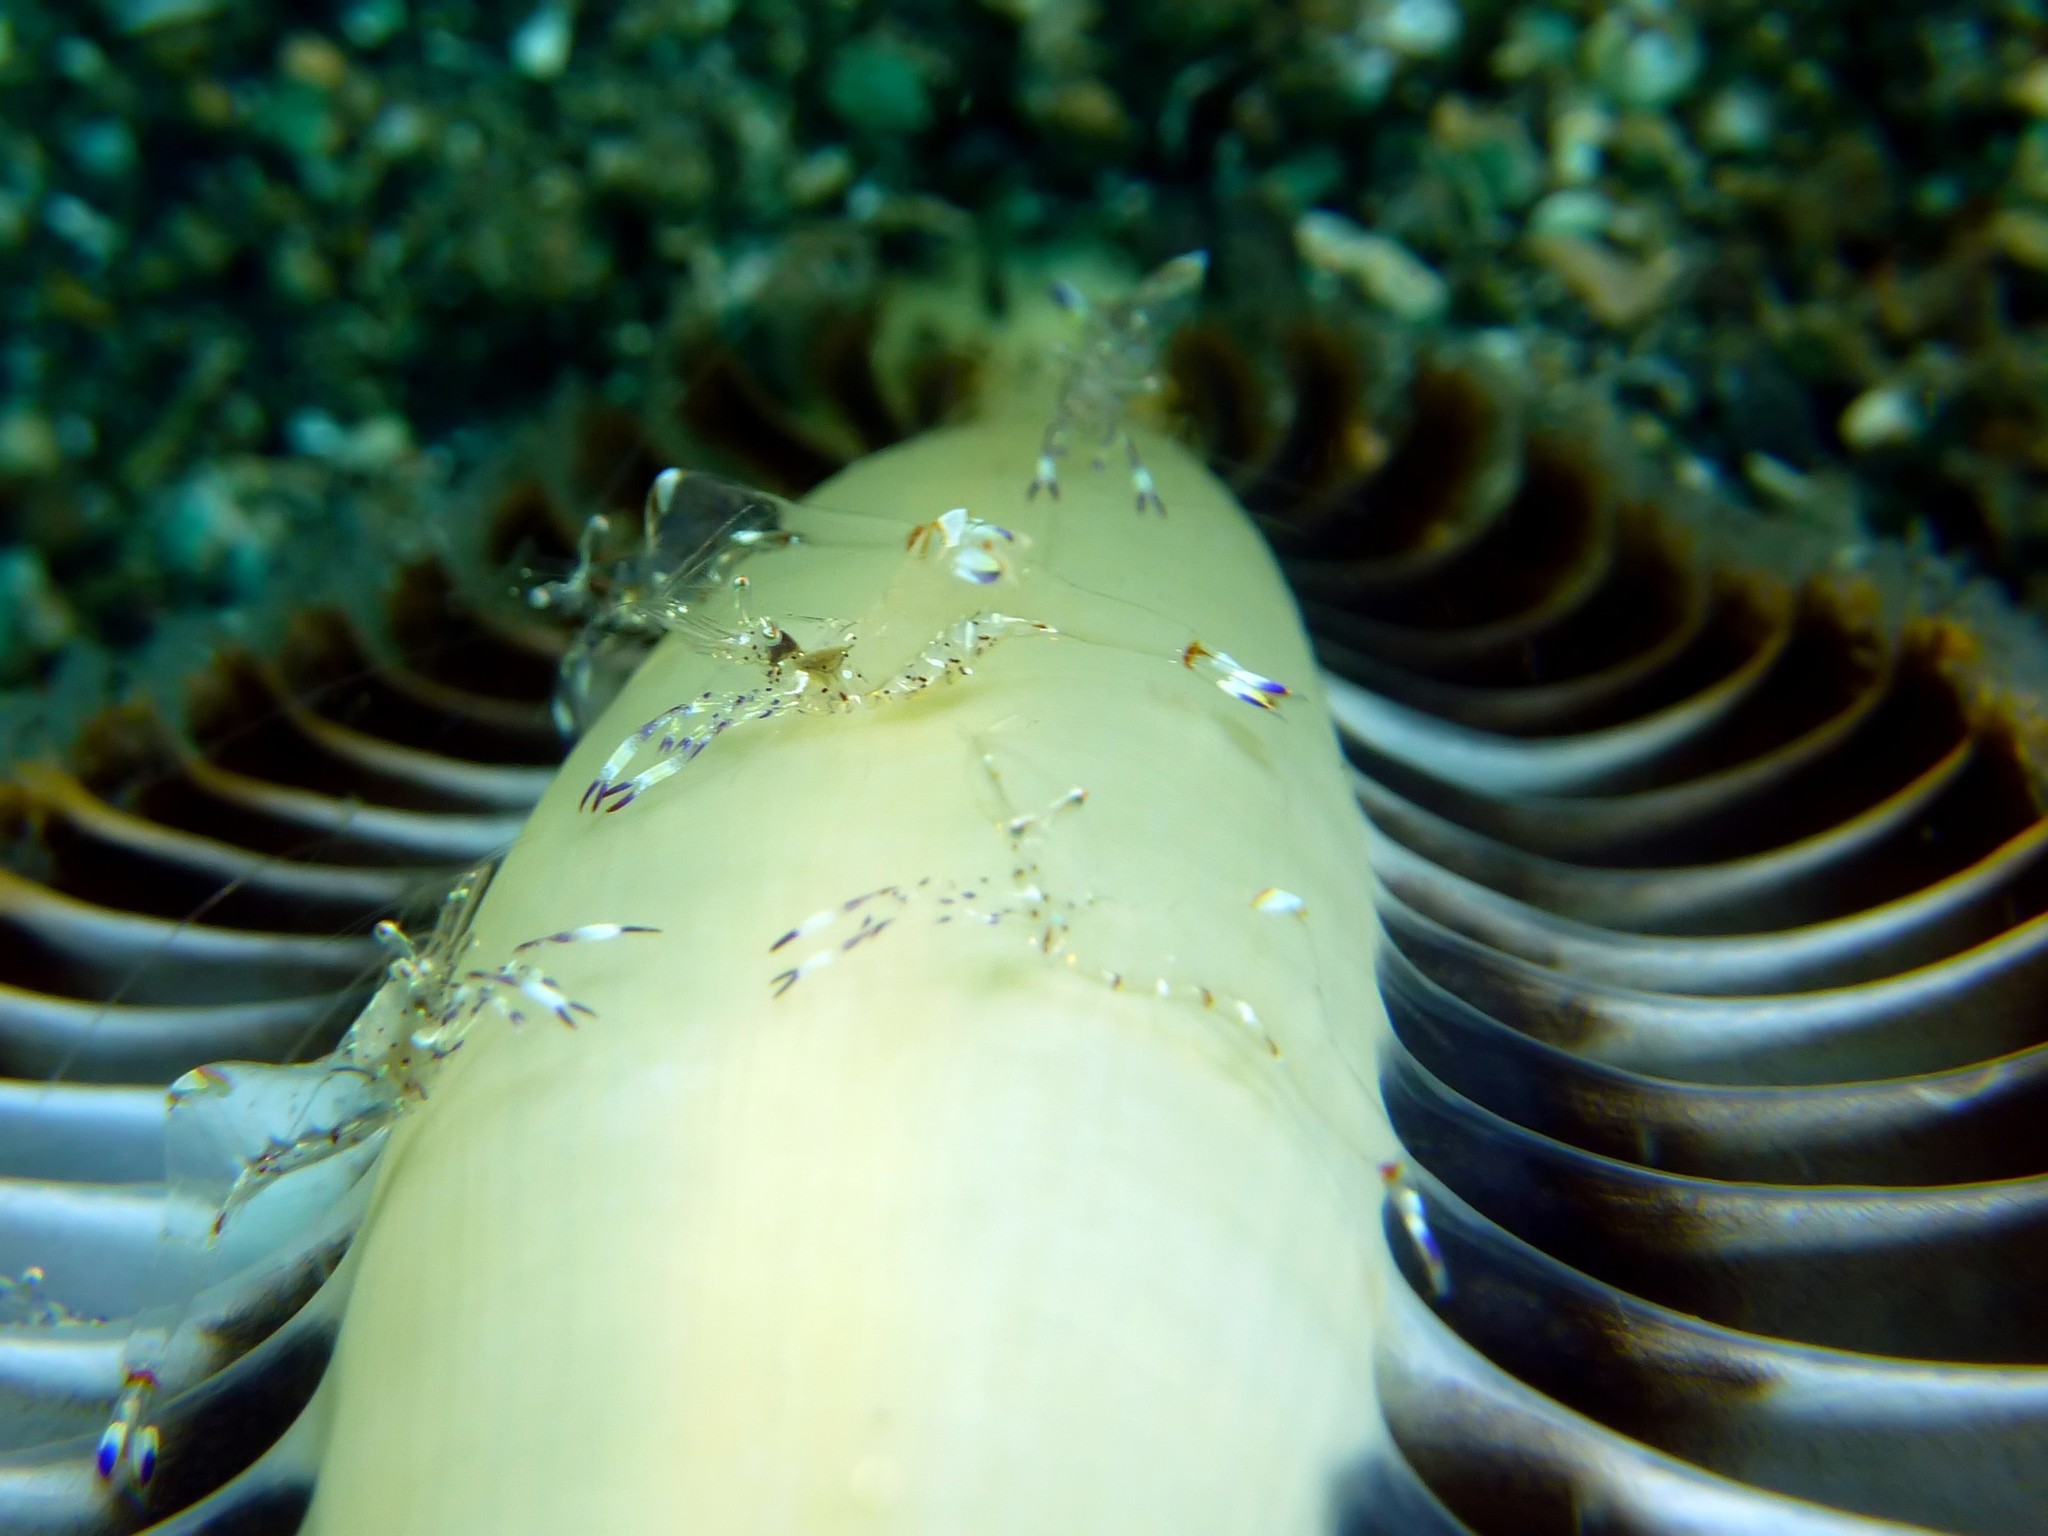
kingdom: Animalia
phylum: Arthropoda
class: Malacostraca
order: Decapoda
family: Palaemonidae
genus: Ancylomenes
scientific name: Ancylomenes holthuisi
